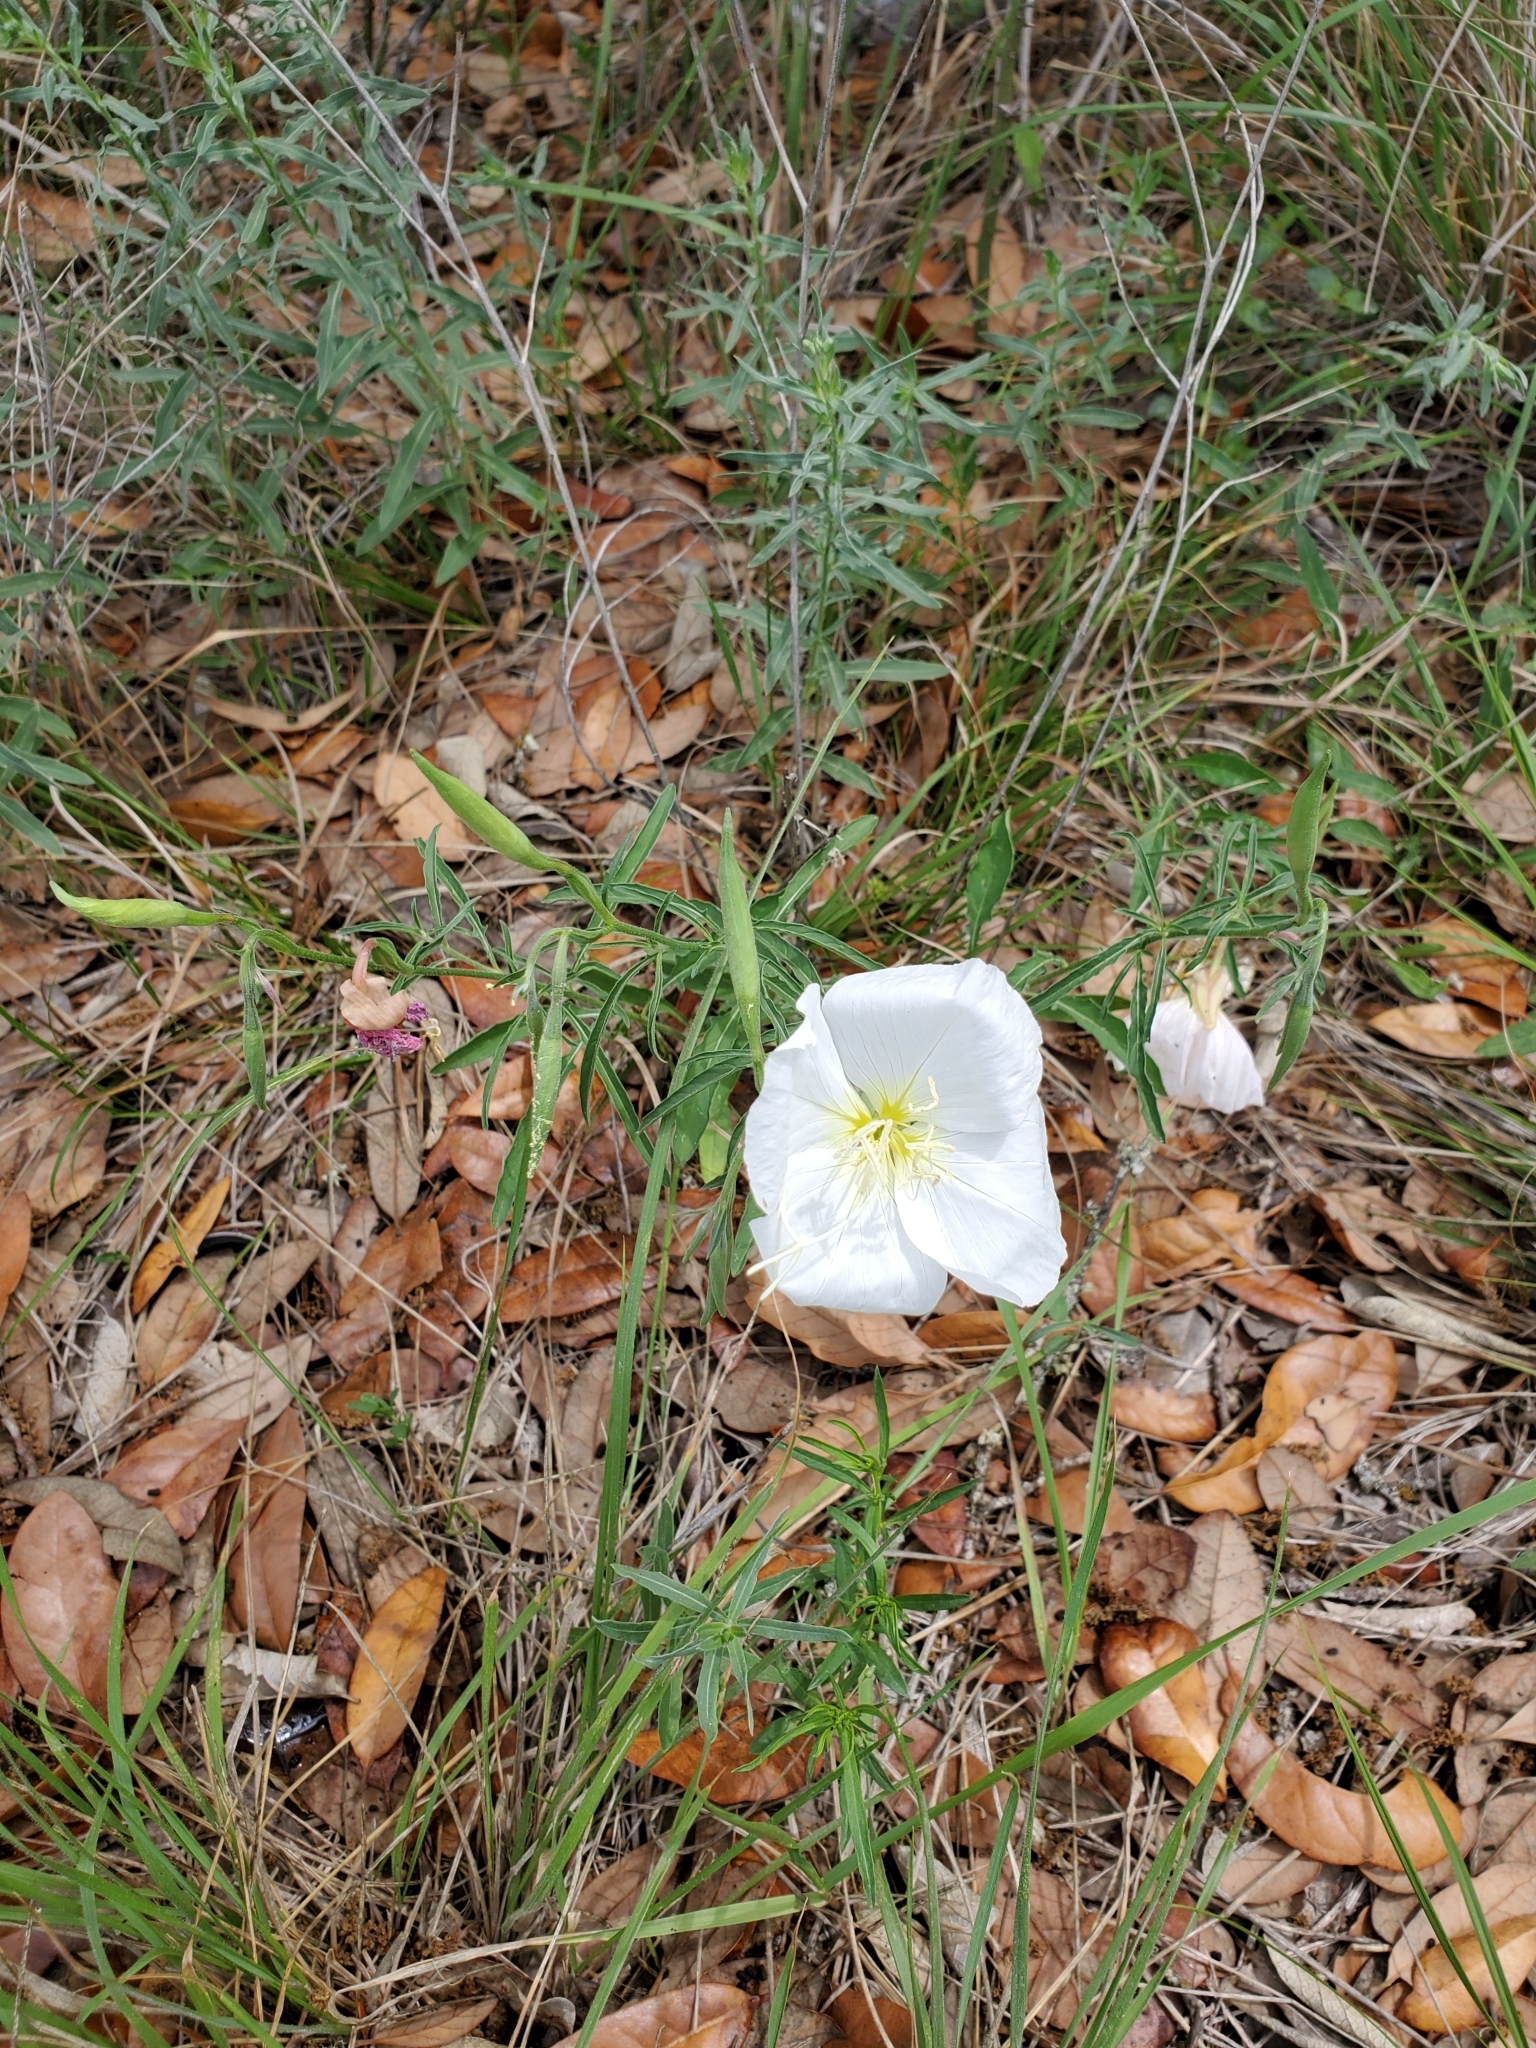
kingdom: Plantae
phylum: Tracheophyta
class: Magnoliopsida
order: Myrtales
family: Onagraceae
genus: Oenothera
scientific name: Oenothera speciosa
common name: White evening-primrose
